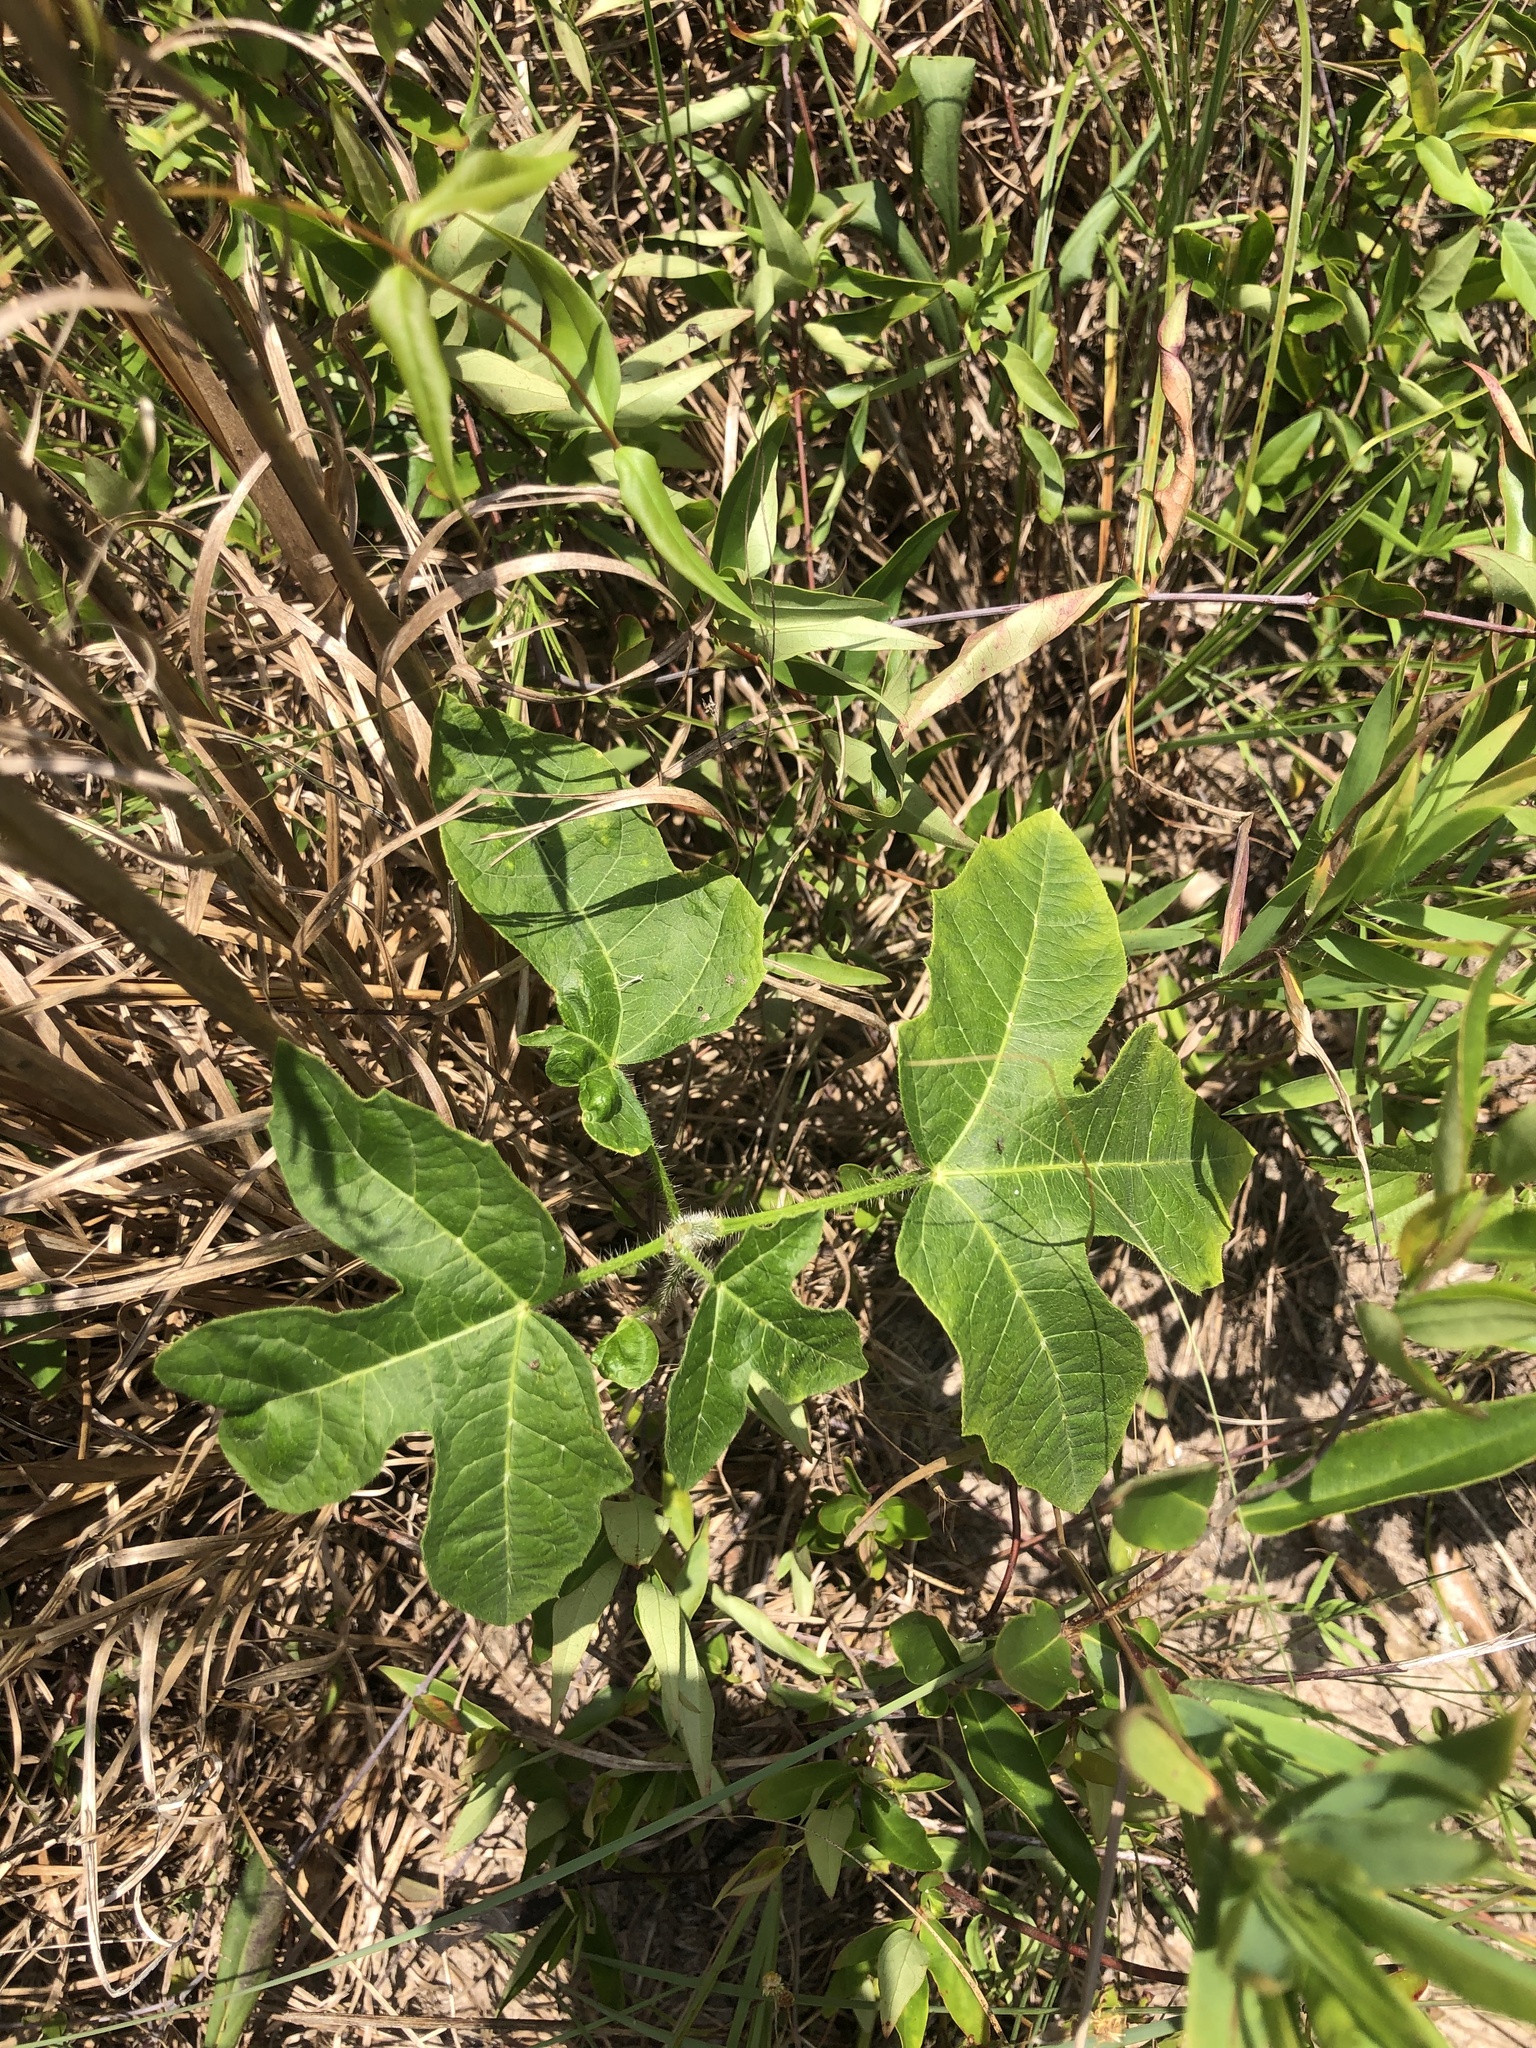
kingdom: Plantae
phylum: Tracheophyta
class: Magnoliopsida
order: Malpighiales
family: Euphorbiaceae
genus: Cnidoscolus
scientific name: Cnidoscolus stimulosus
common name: Bull-nettle
